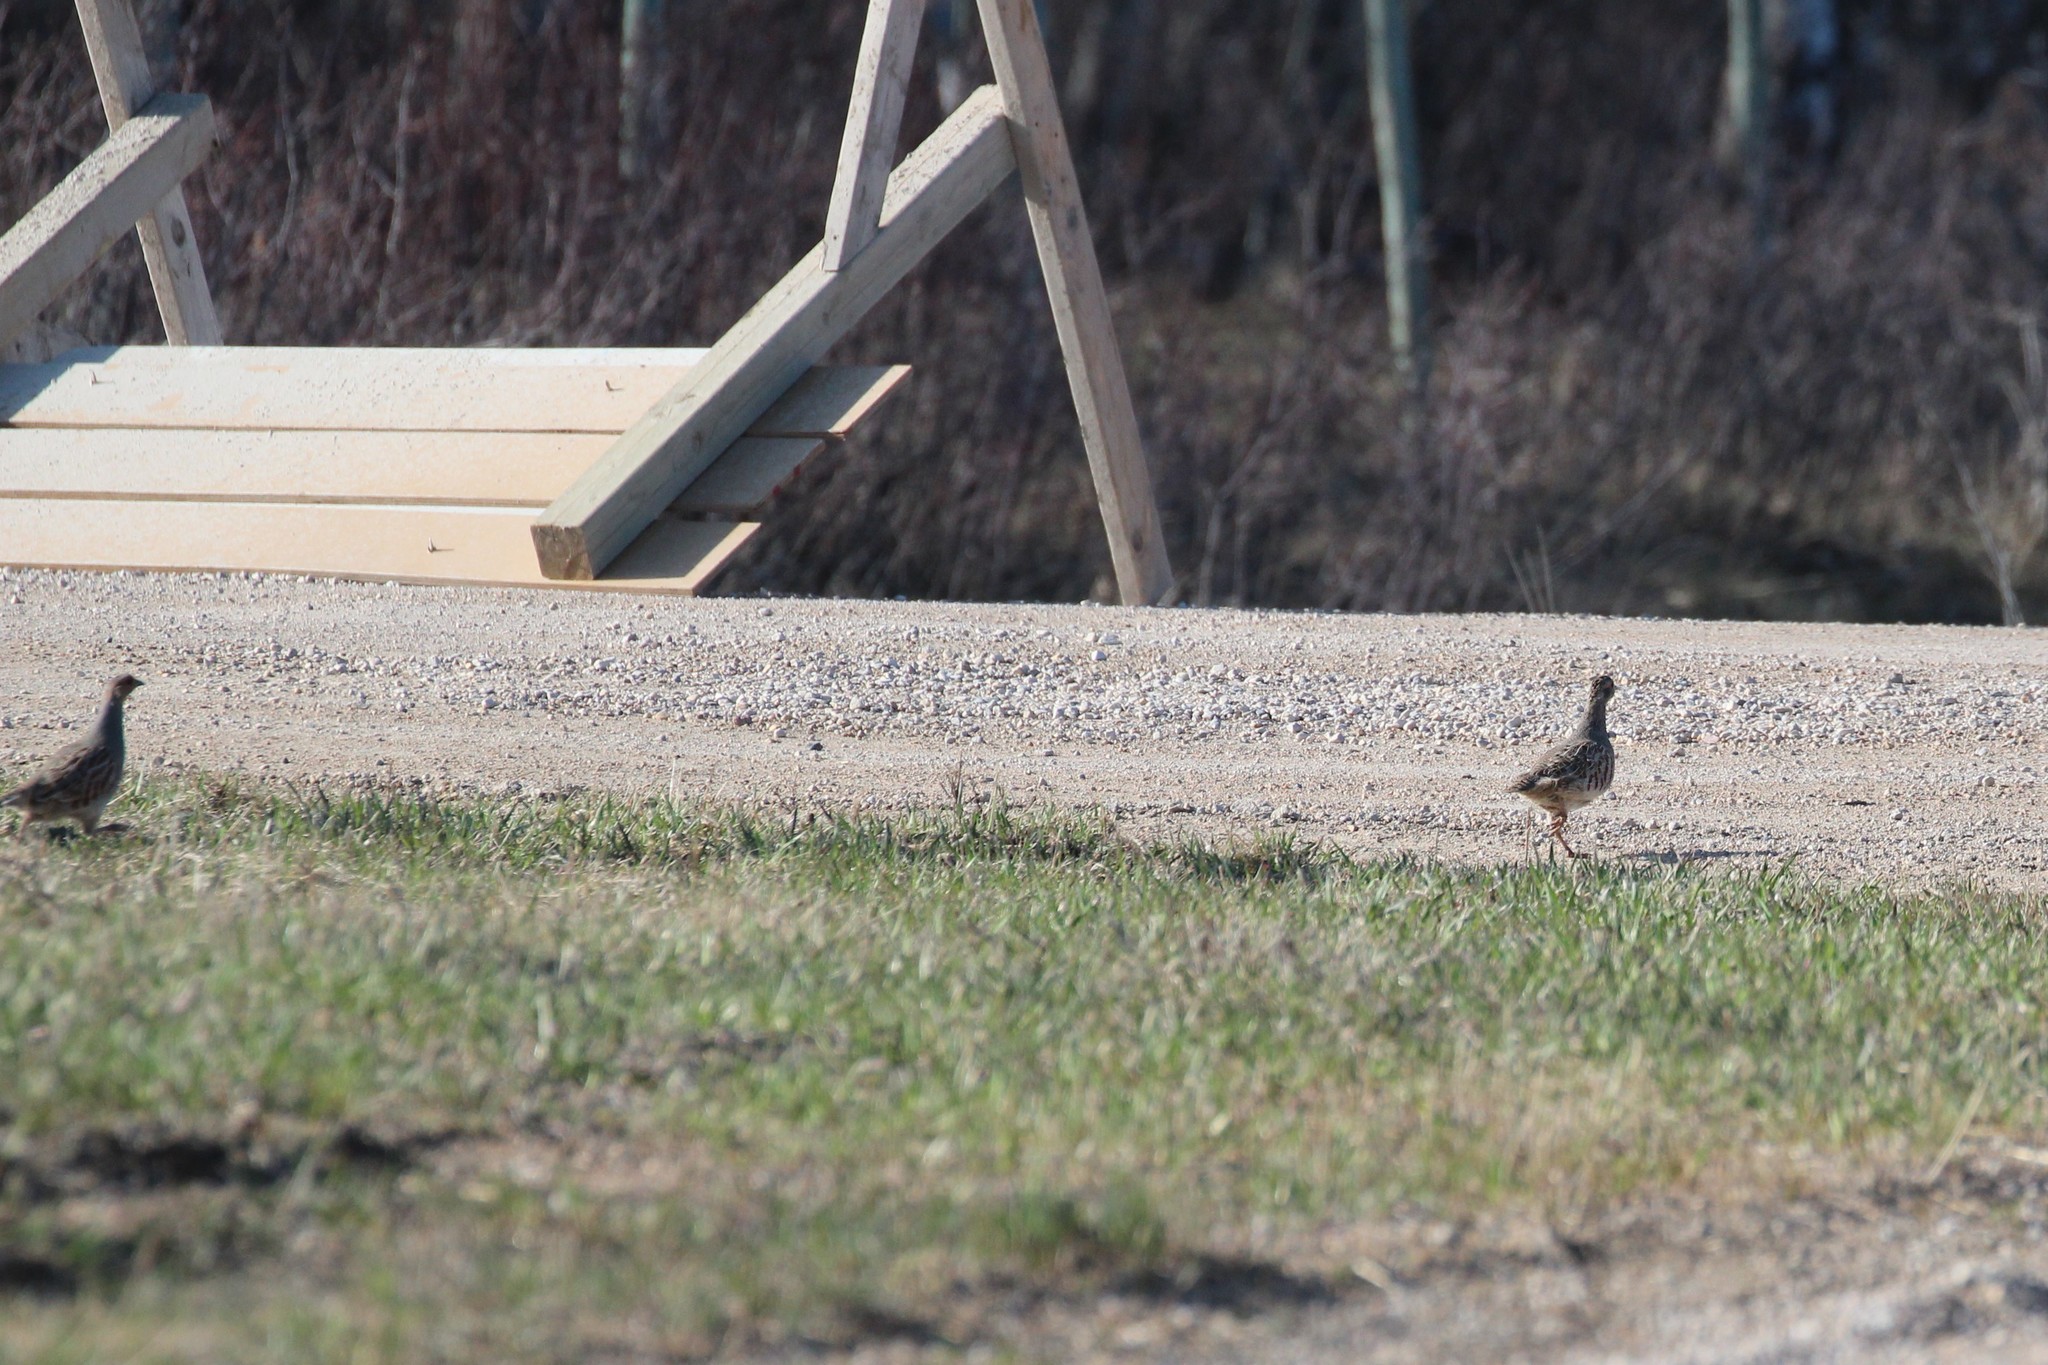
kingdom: Animalia
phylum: Chordata
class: Aves
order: Galliformes
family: Phasianidae
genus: Perdix
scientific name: Perdix perdix
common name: Grey partridge
